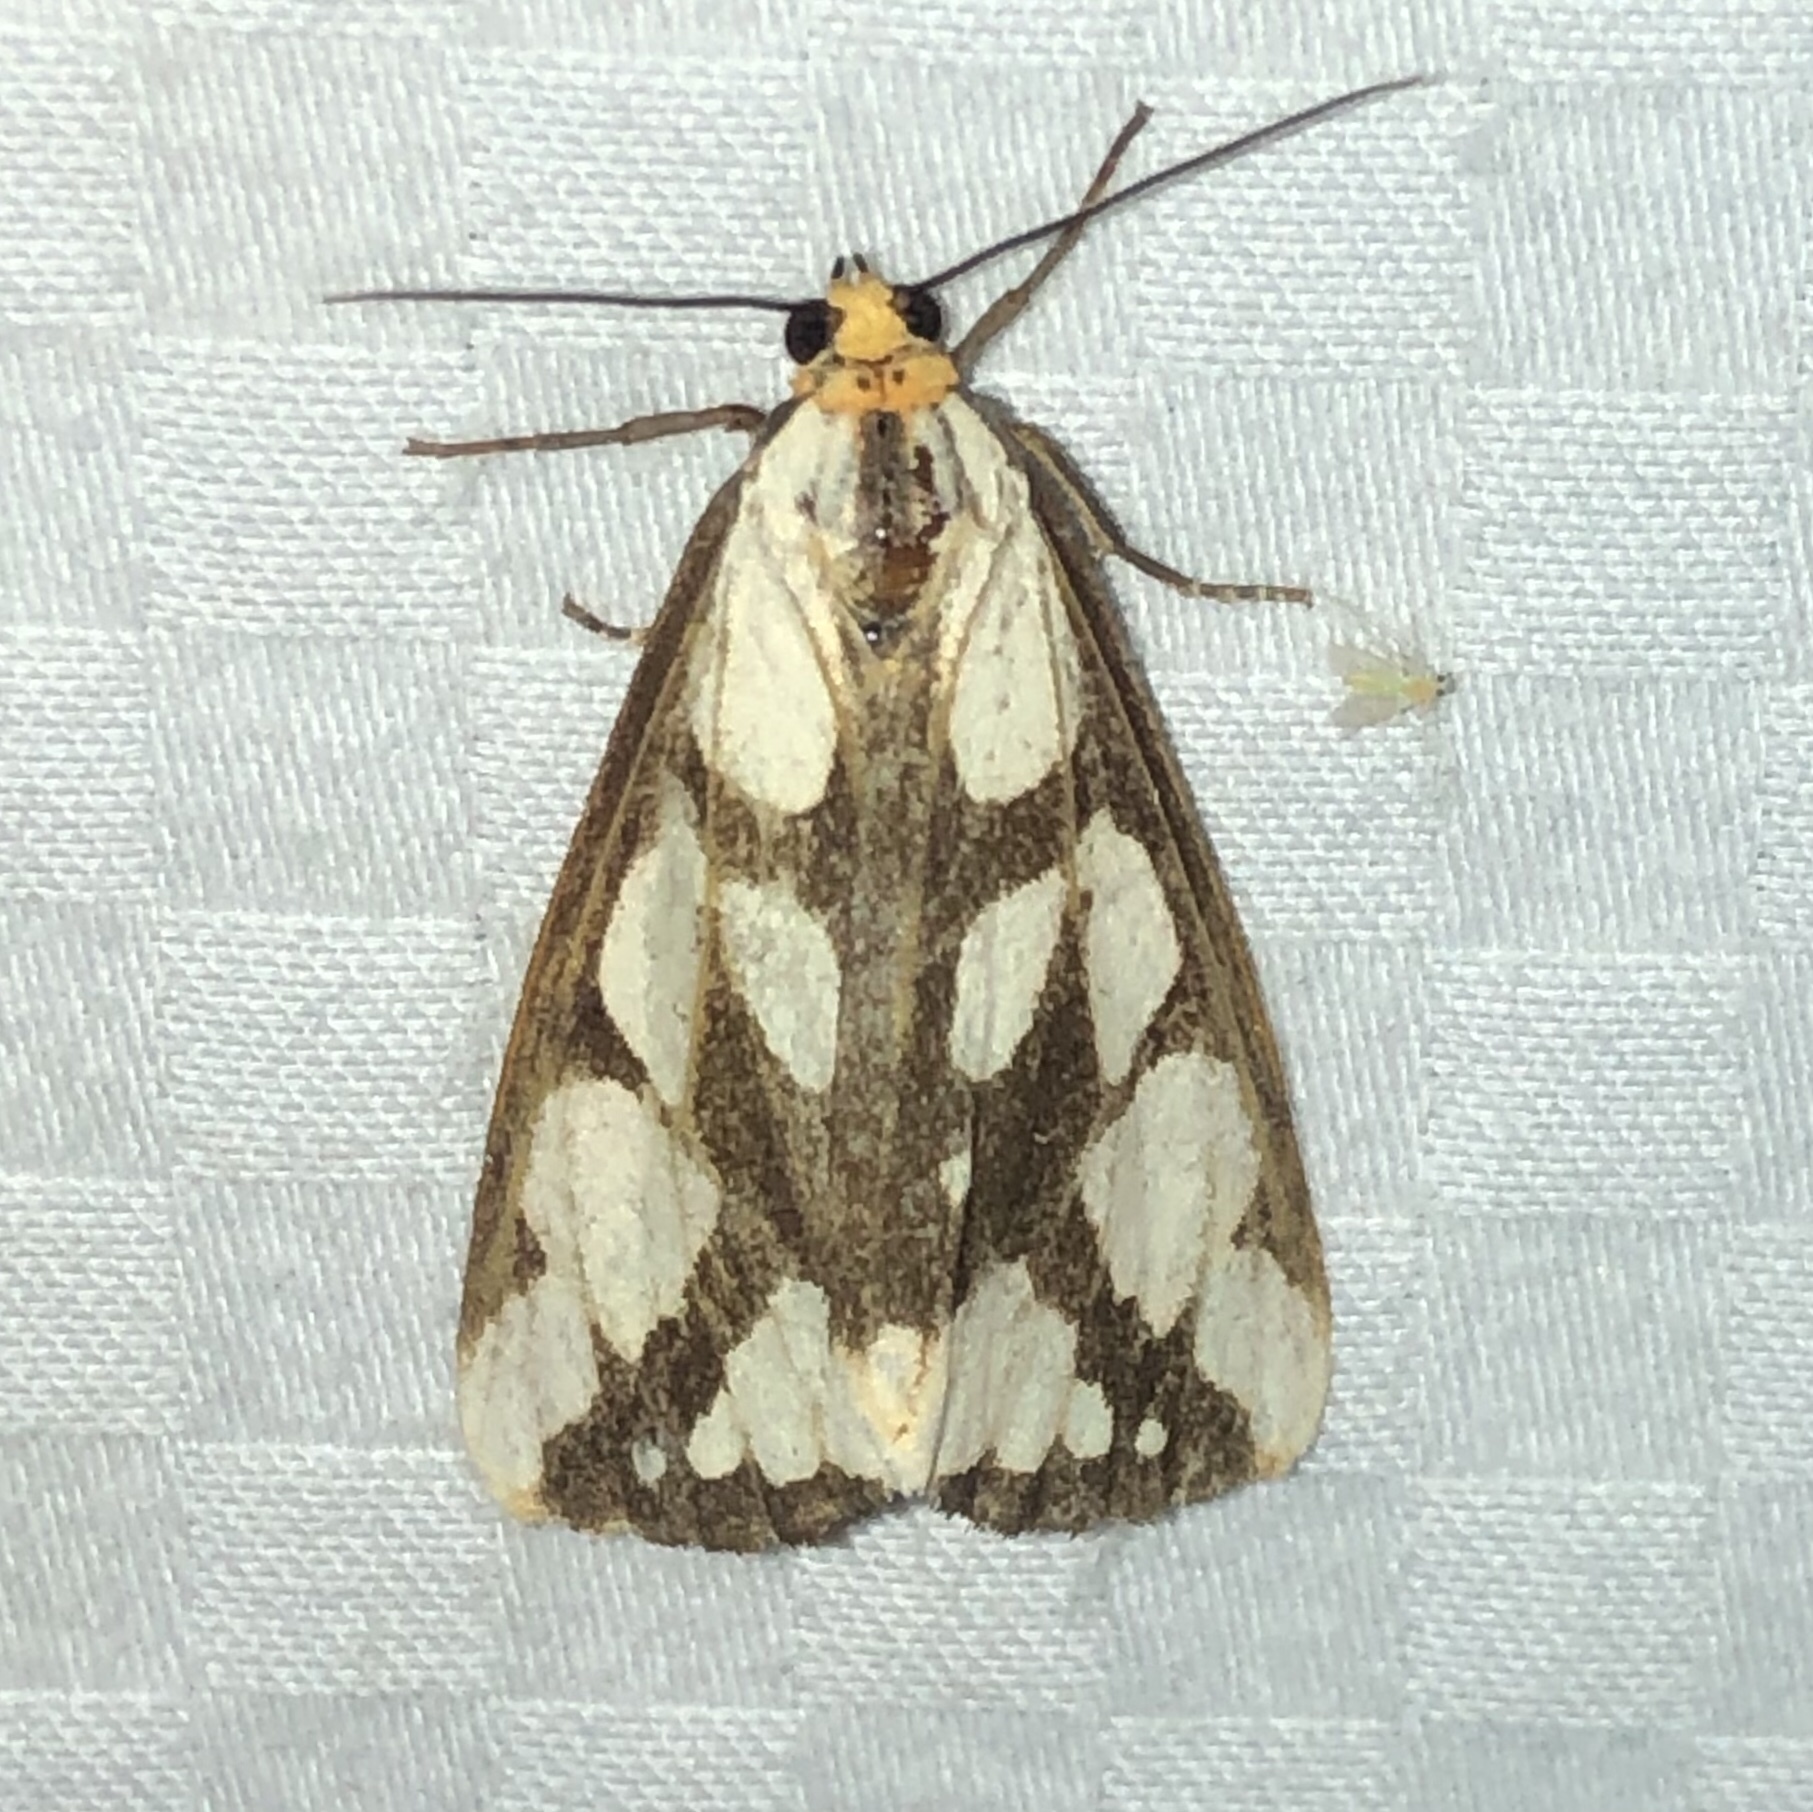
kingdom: Animalia
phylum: Arthropoda
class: Insecta
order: Lepidoptera
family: Erebidae
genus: Haploa
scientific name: Haploa confusa
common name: Confused haploa moth
